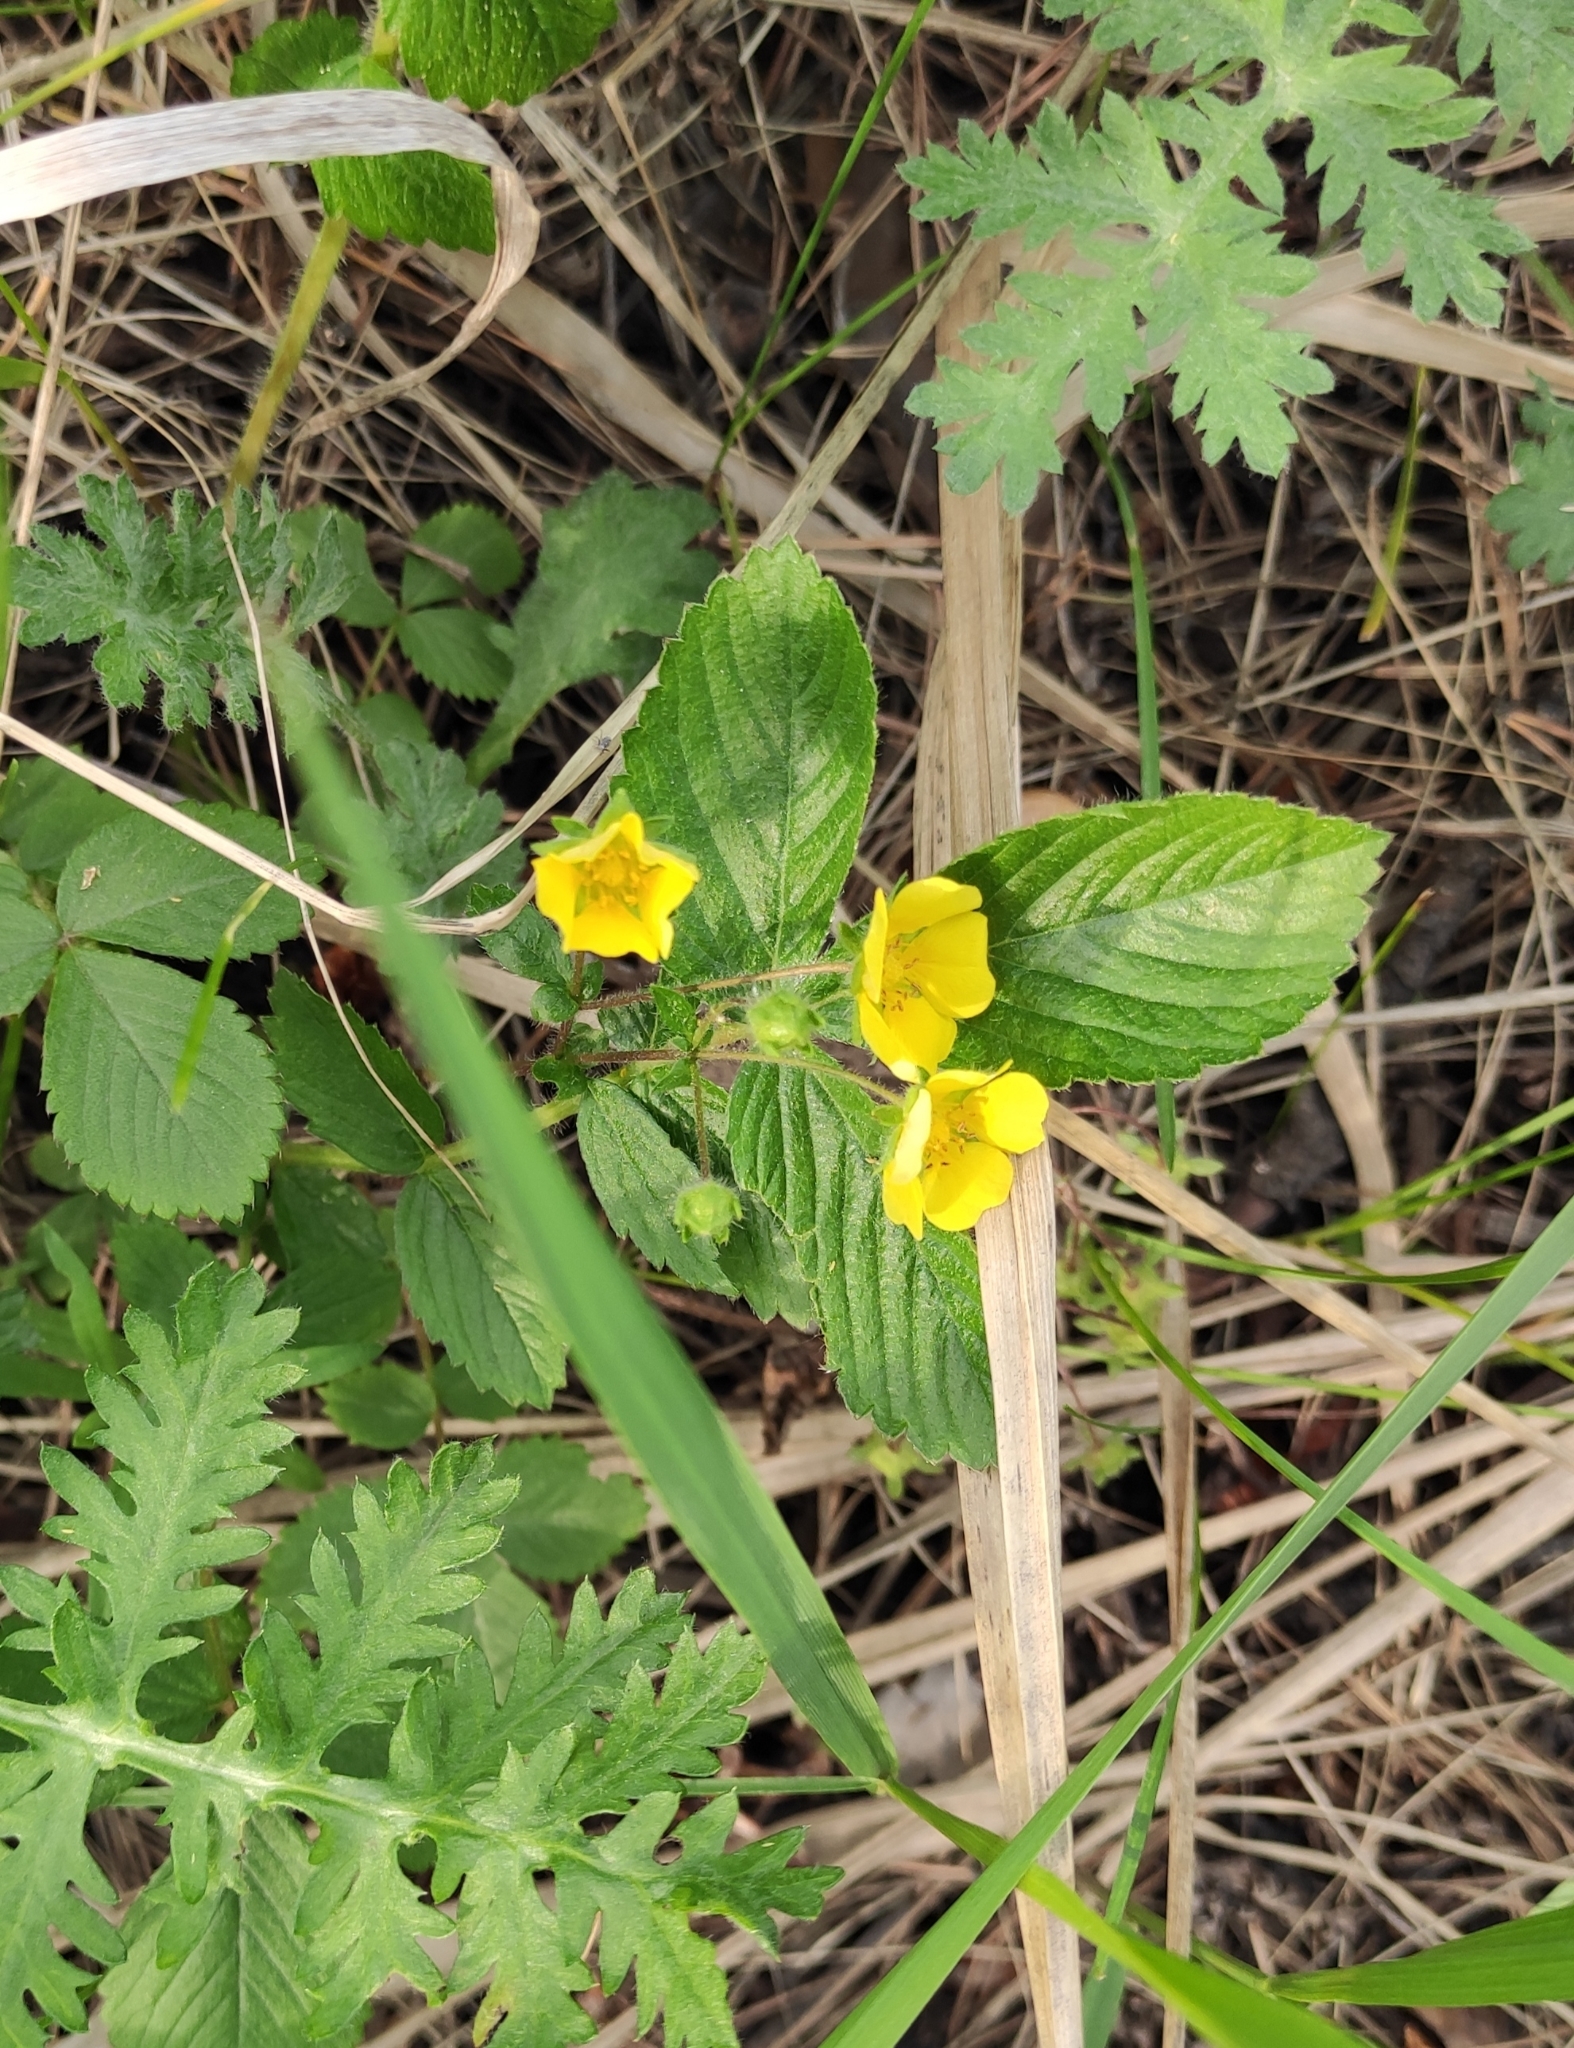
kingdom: Plantae
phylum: Tracheophyta
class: Magnoliopsida
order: Rosales
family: Rosaceae
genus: Potentilla
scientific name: Potentilla fragarioides
